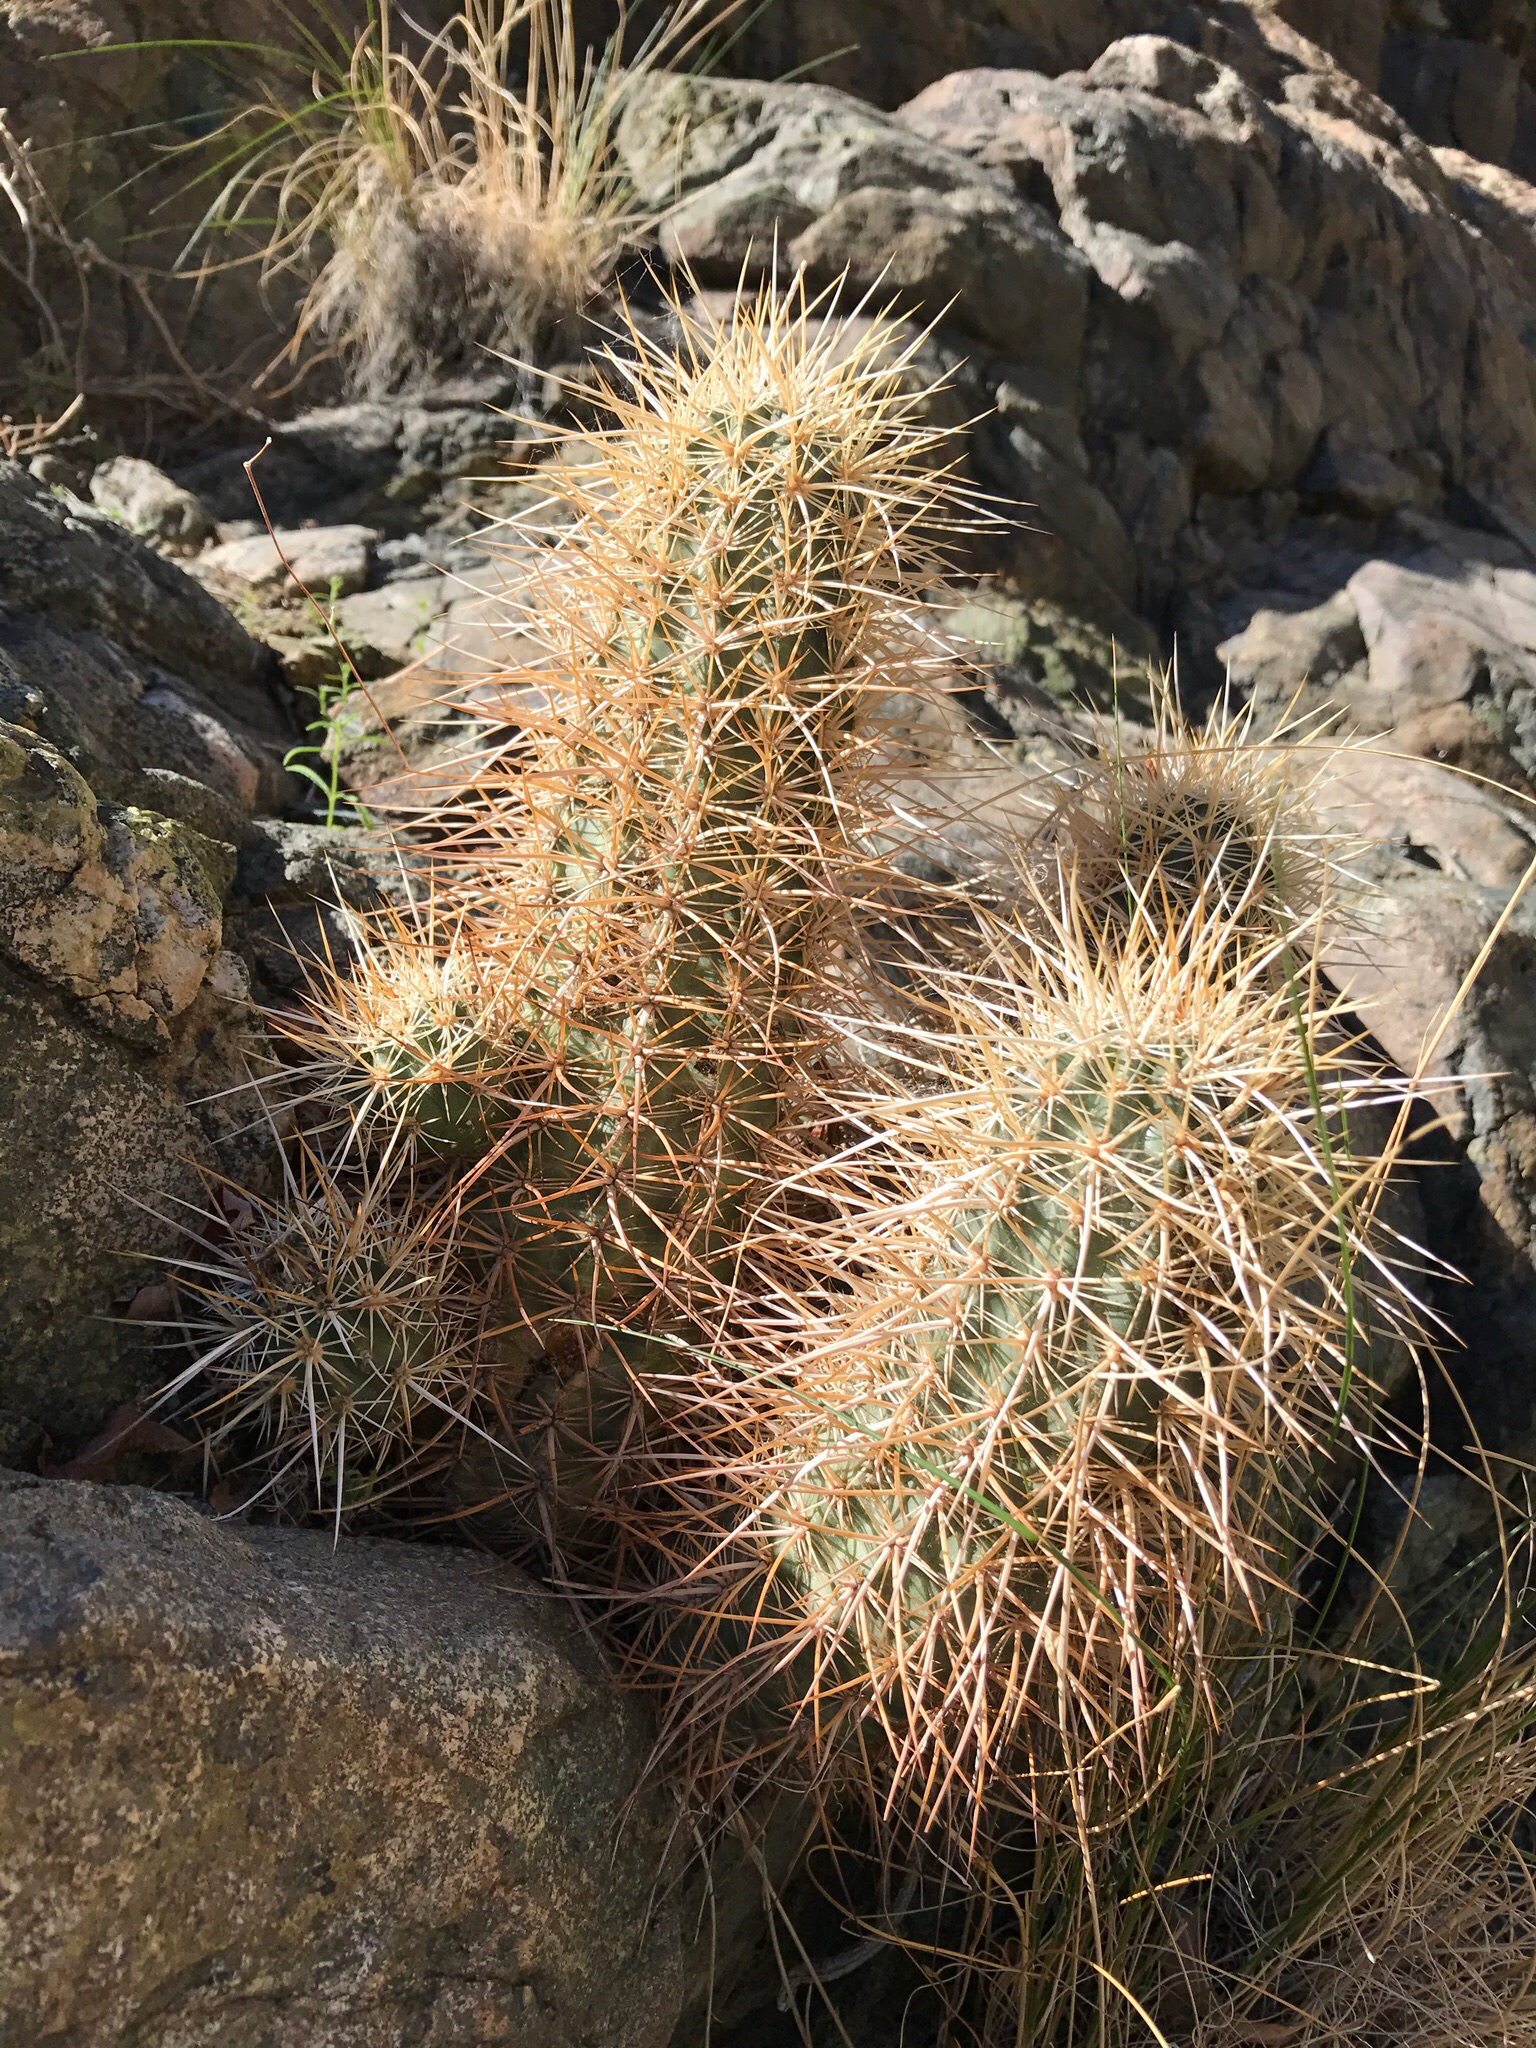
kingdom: Plantae
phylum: Tracheophyta
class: Magnoliopsida
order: Caryophyllales
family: Cactaceae
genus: Echinocereus
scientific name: Echinocereus engelmannii
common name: Engelmann's hedgehog cactus
